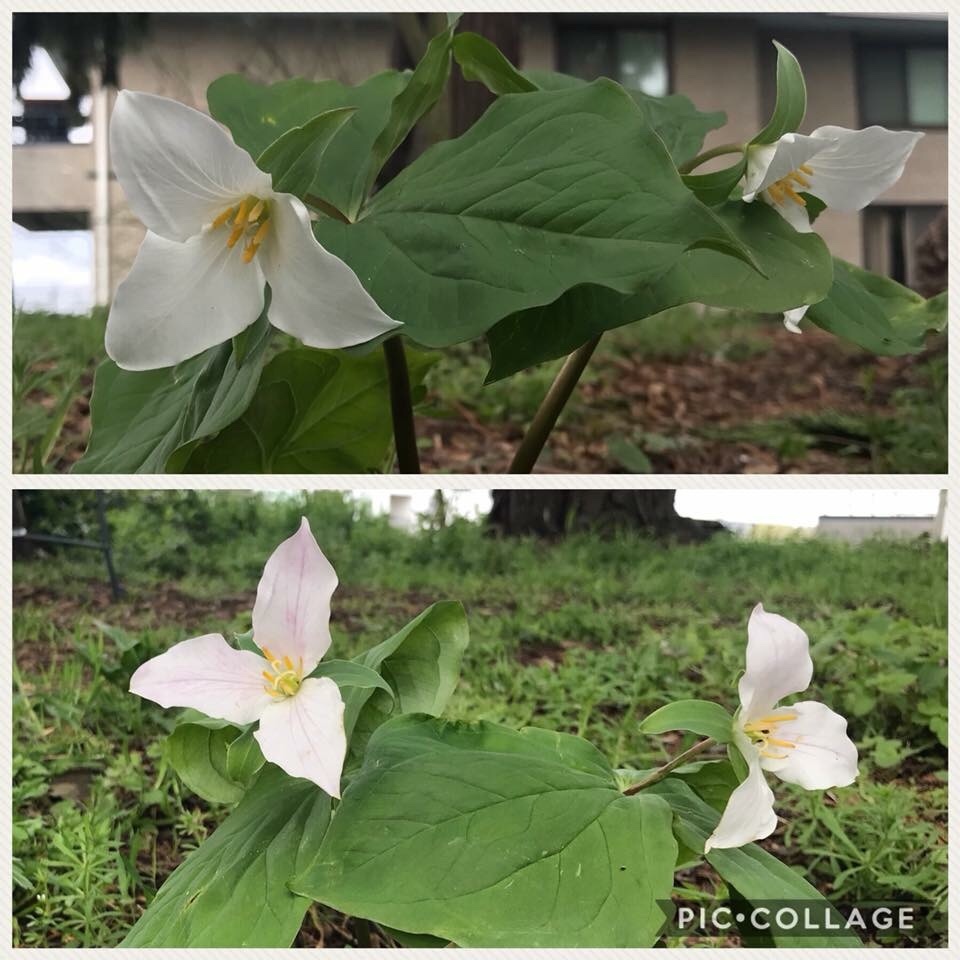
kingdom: Plantae
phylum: Tracheophyta
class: Liliopsida
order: Liliales
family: Melanthiaceae
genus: Trillium
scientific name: Trillium ovatum
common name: Pacific trillium
